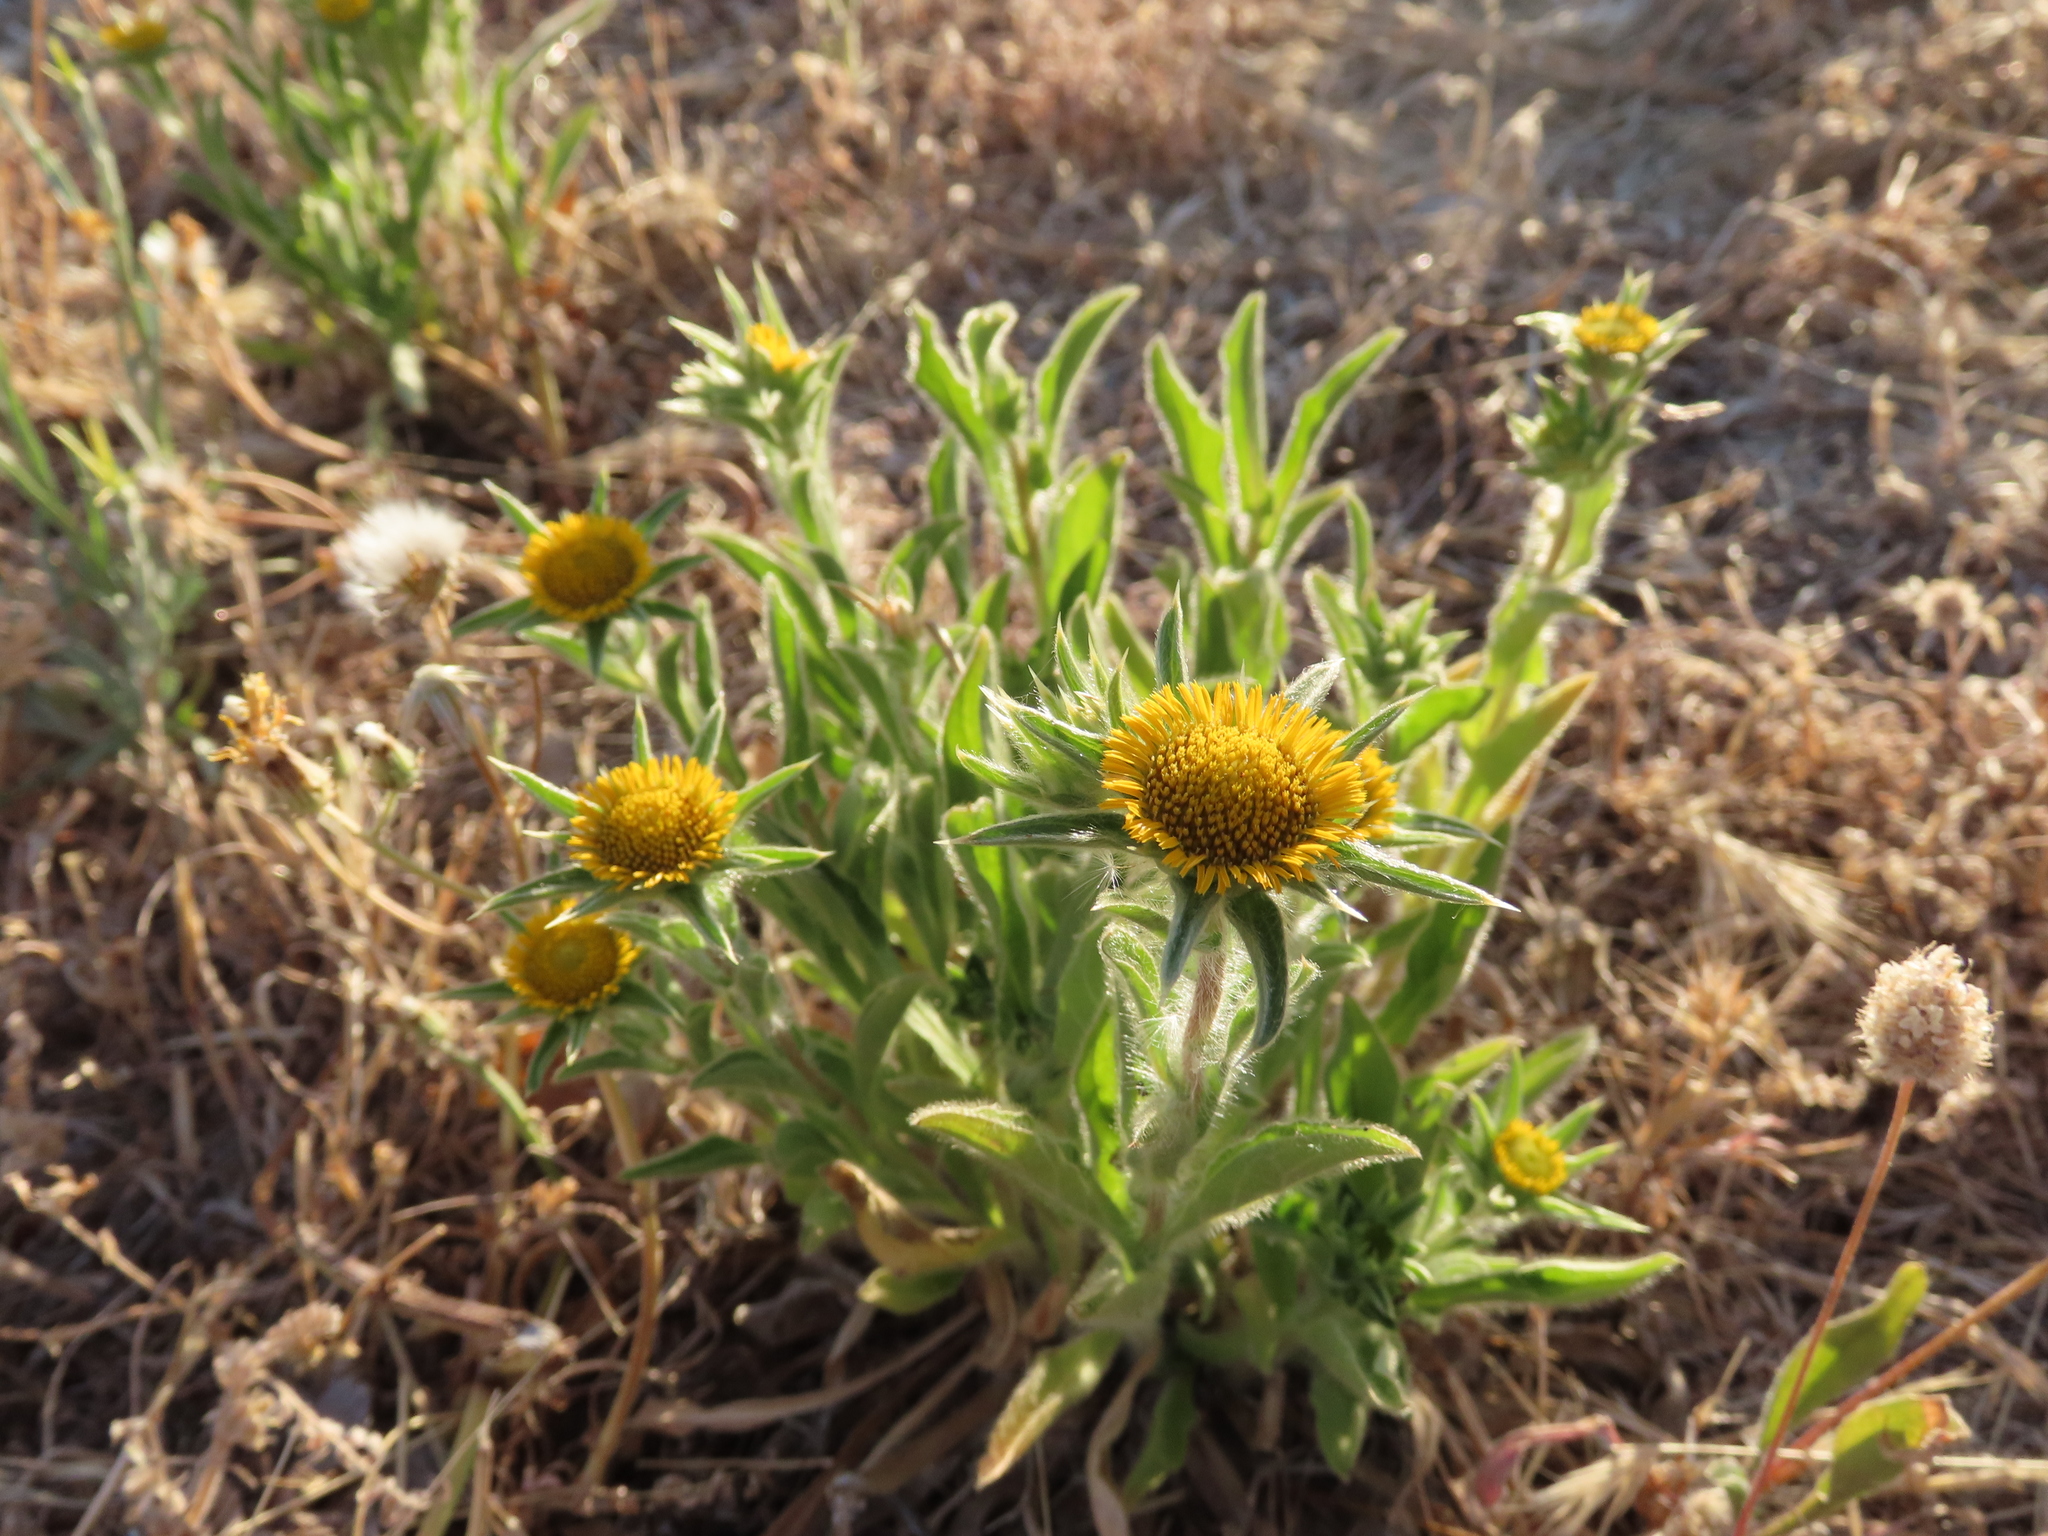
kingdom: Plantae
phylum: Tracheophyta
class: Magnoliopsida
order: Asterales
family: Asteraceae
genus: Pallenis
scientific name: Pallenis spinosa
